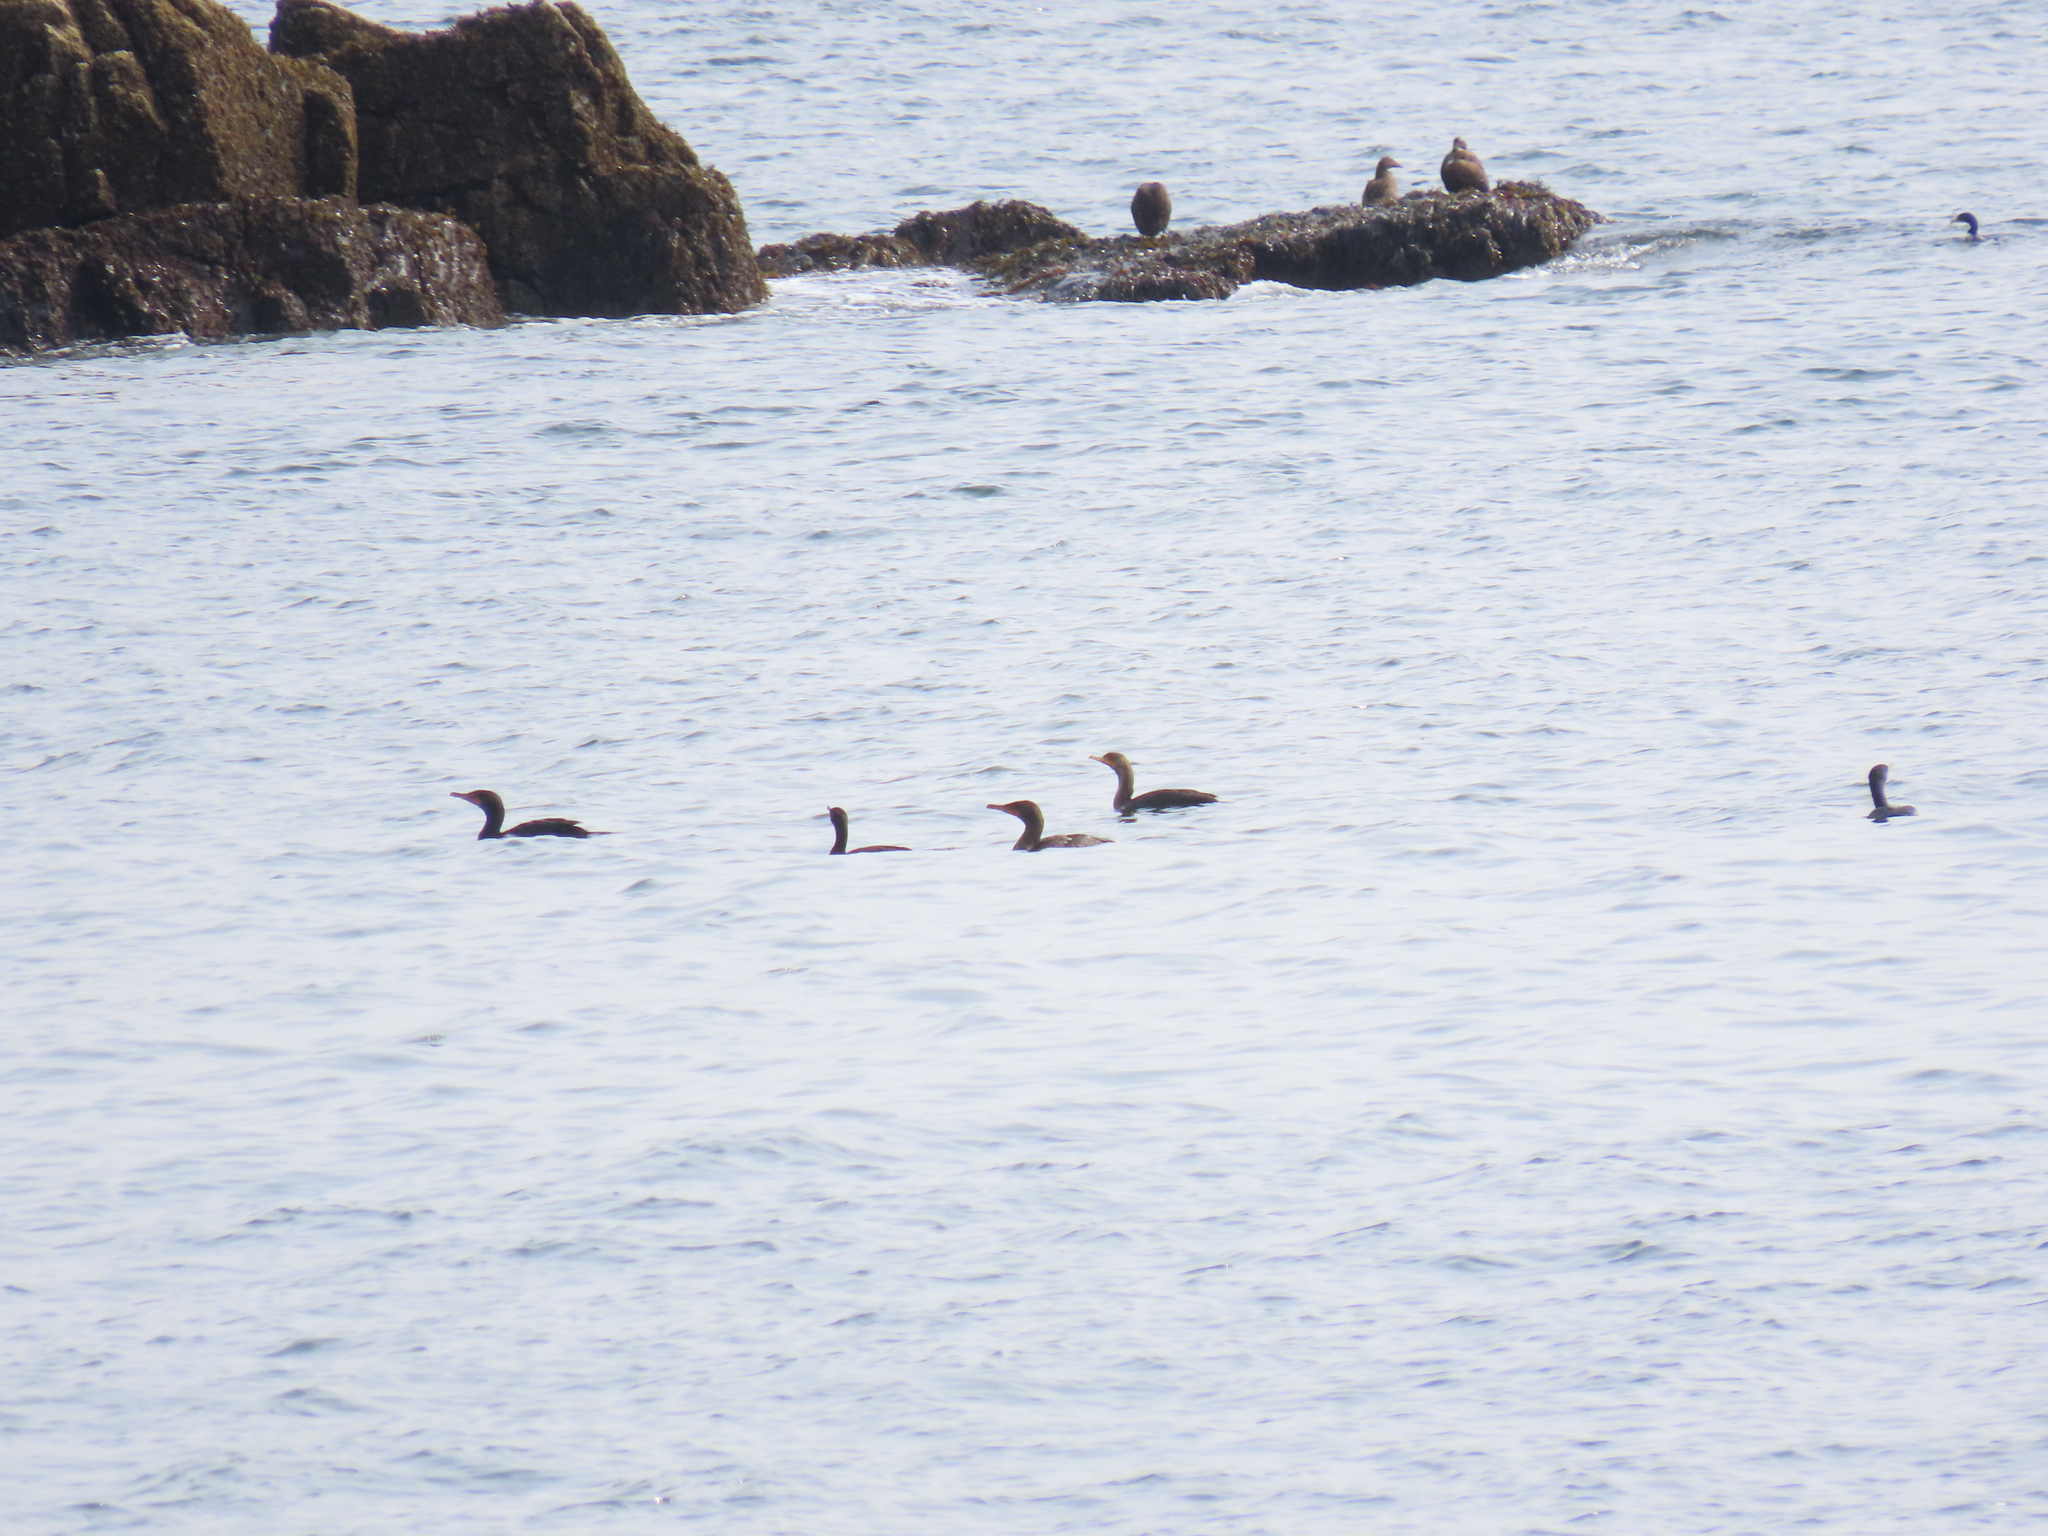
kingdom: Animalia
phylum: Chordata
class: Aves
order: Suliformes
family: Phalacrocoracidae
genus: Phalacrocorax
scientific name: Phalacrocorax auritus
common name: Double-crested cormorant
